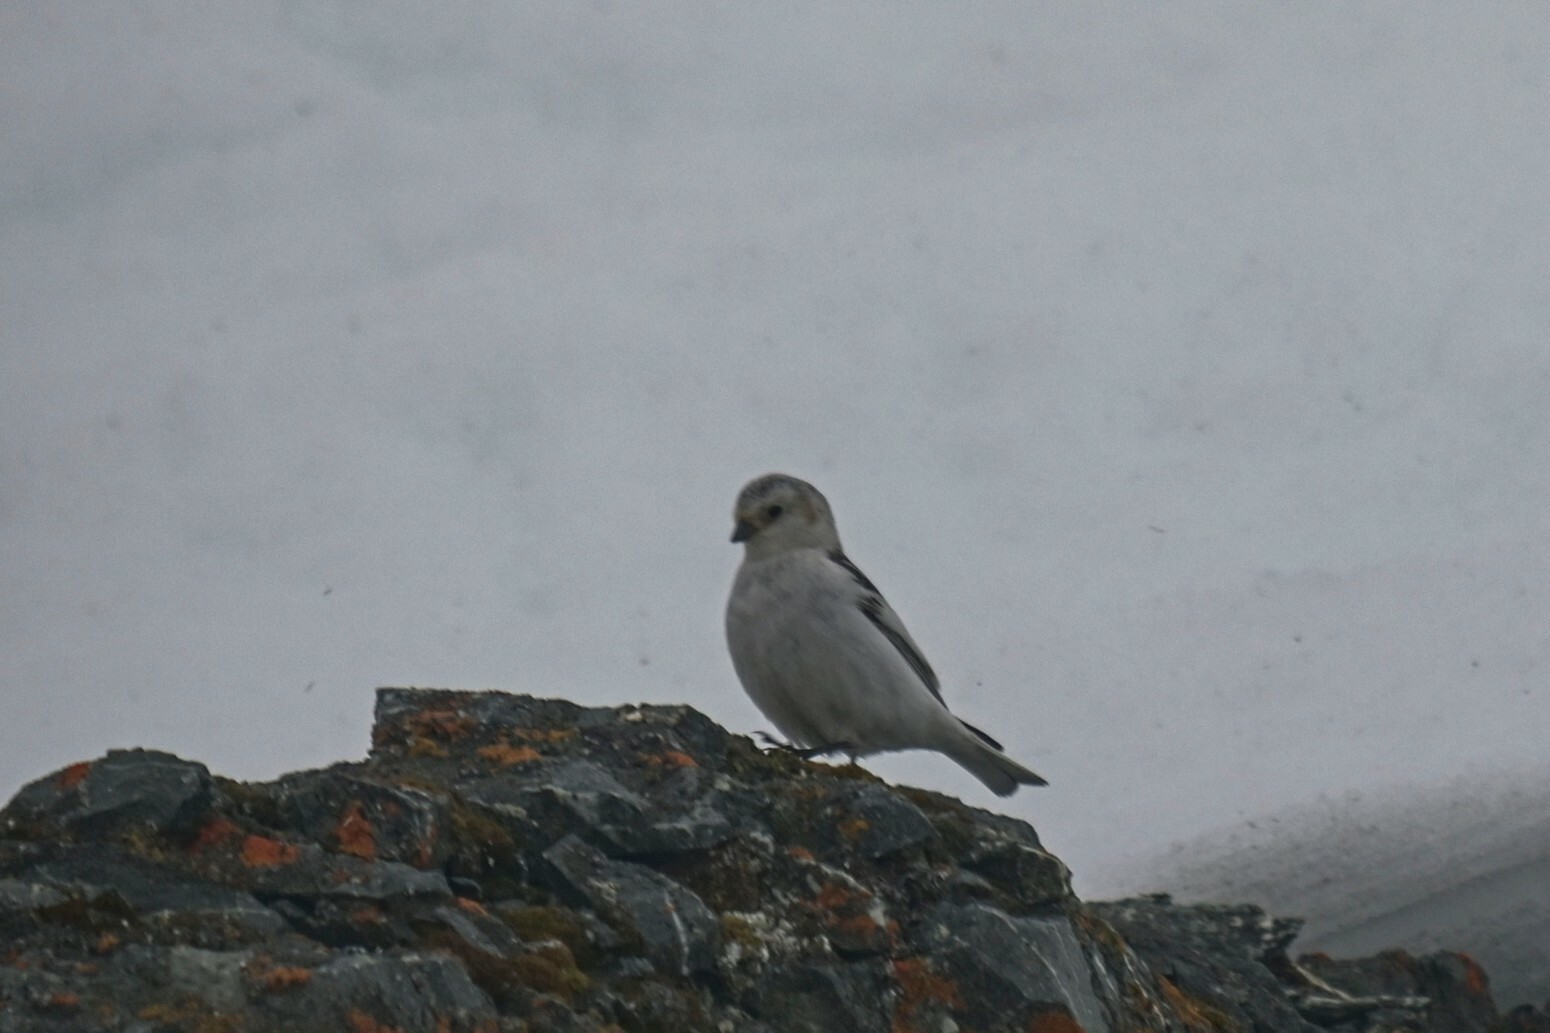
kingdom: Animalia
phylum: Chordata
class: Aves
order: Passeriformes
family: Calcariidae
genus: Plectrophenax
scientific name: Plectrophenax nivalis
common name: Snow bunting
